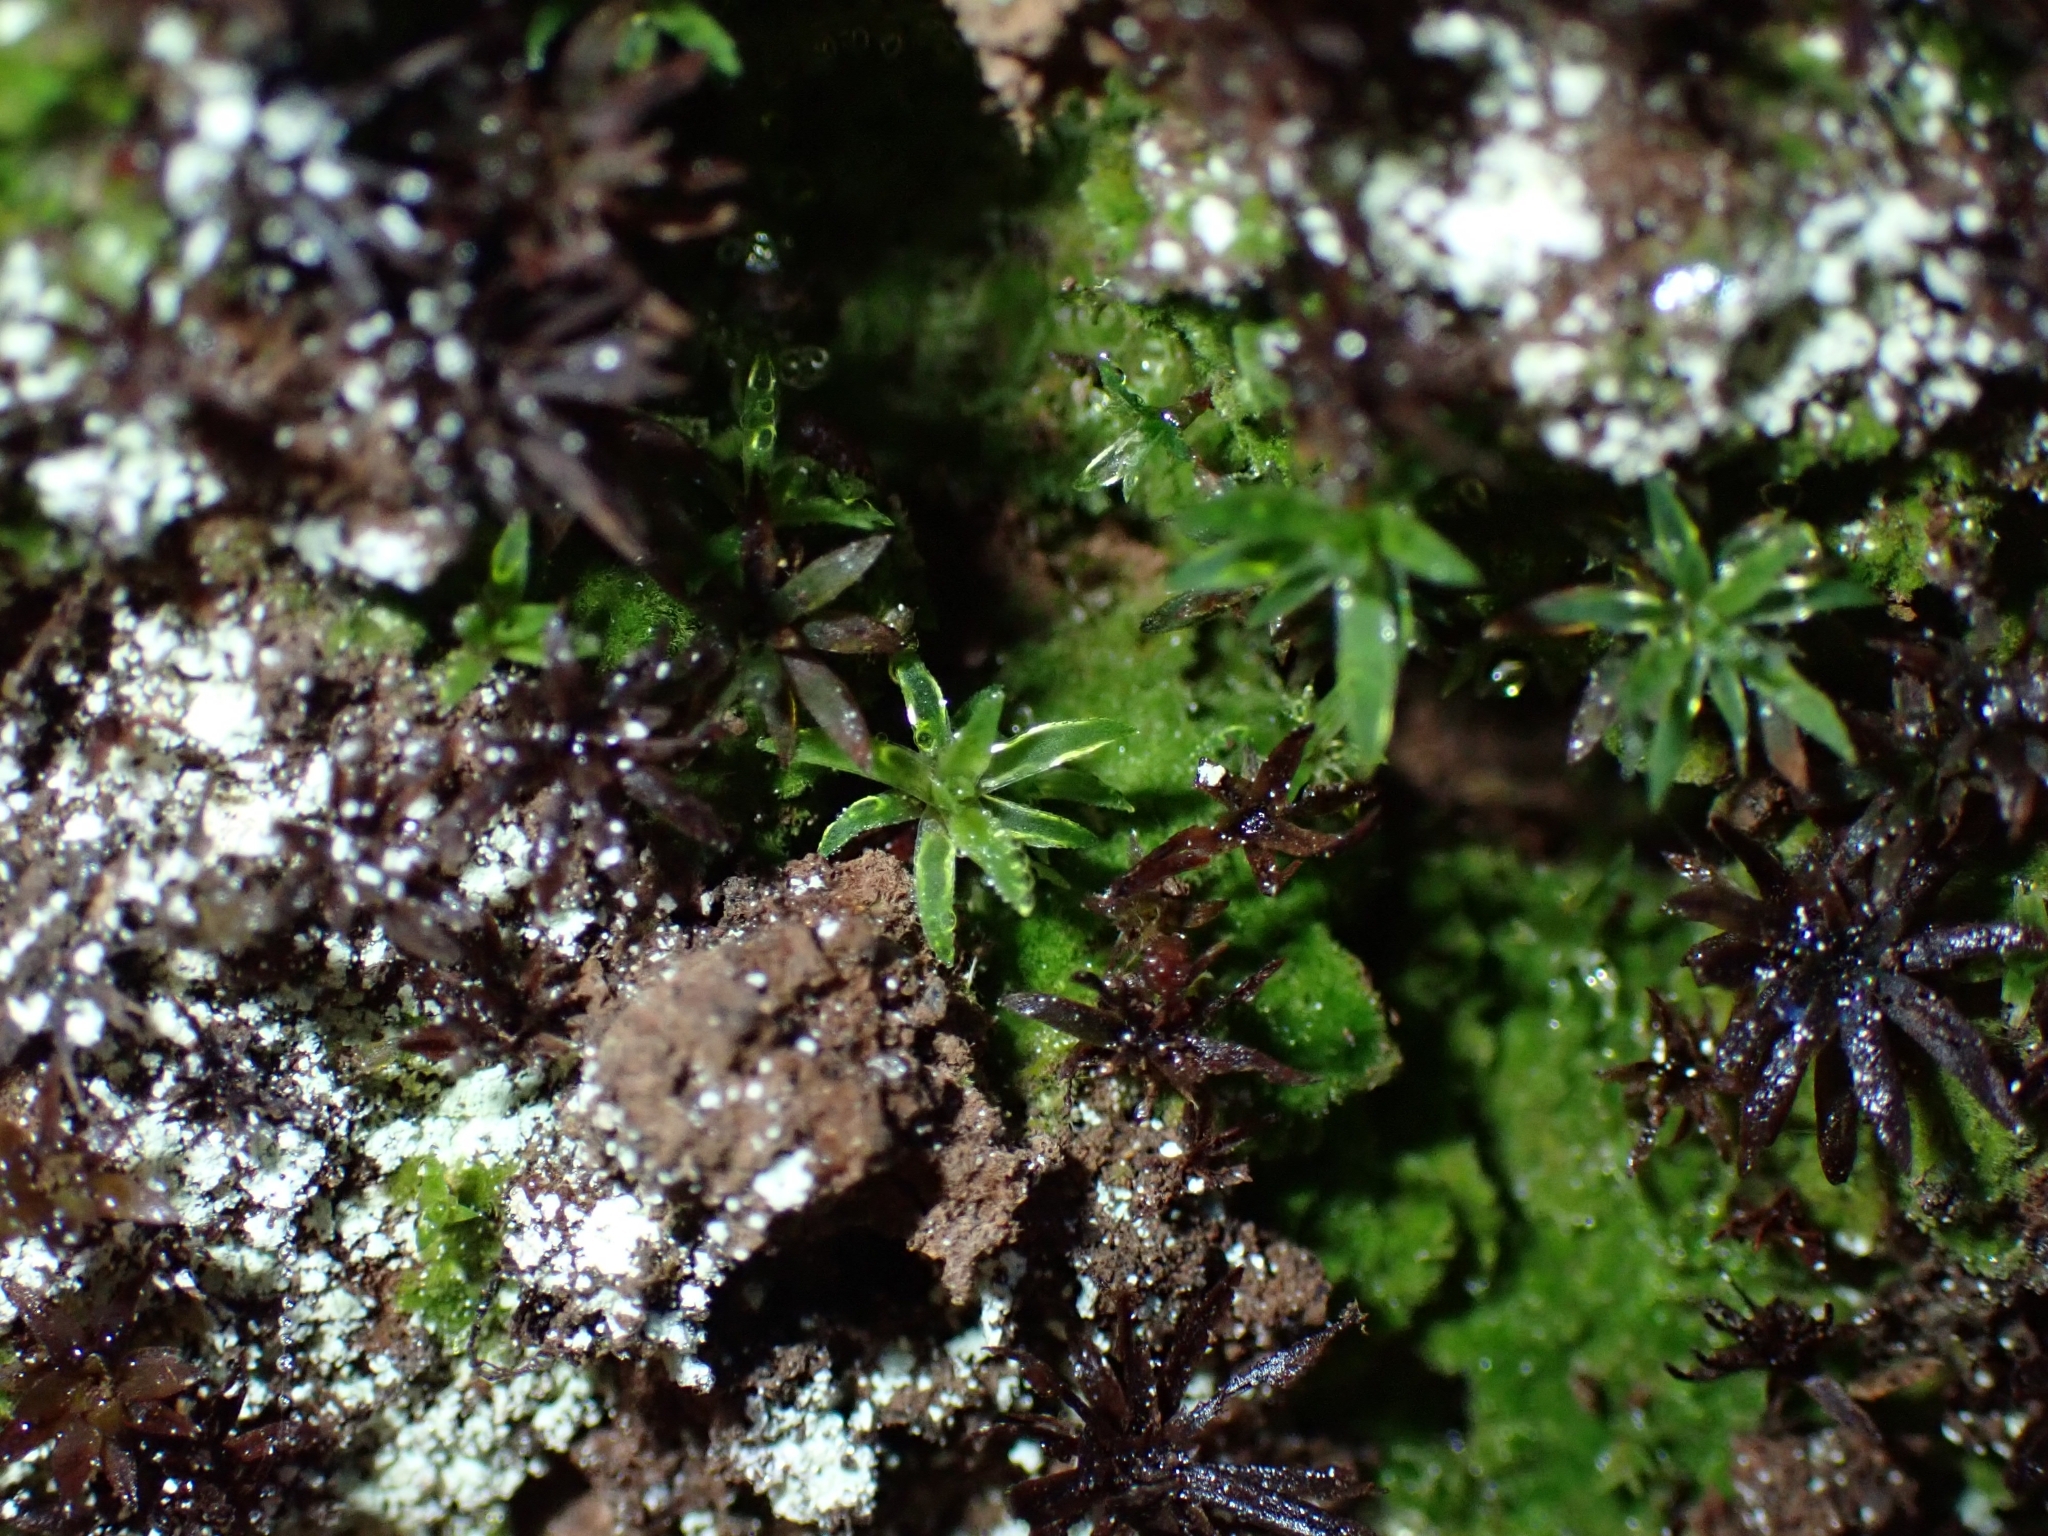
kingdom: Plantae
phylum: Bryophyta
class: Polytrichopsida
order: Polytrichales
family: Polytrichaceae
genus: Pogonatum
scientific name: Pogonatum aloides
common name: Aloe haircap
